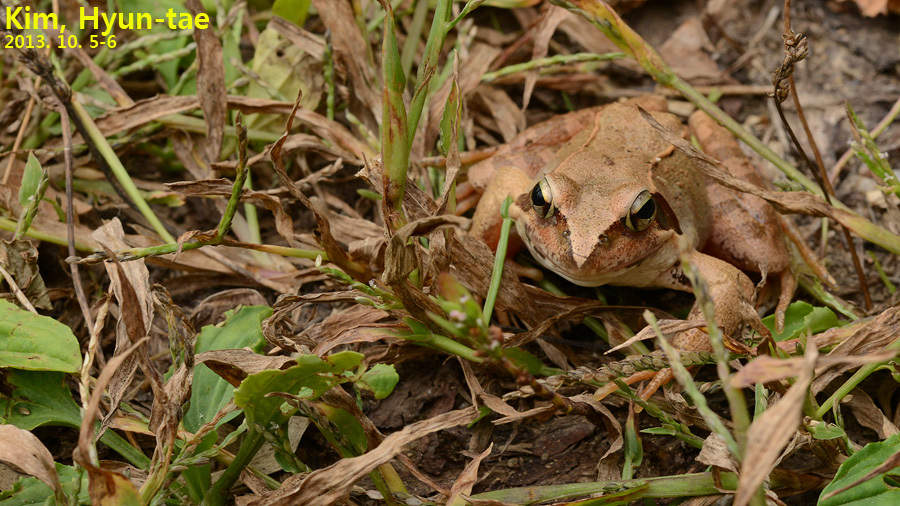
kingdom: Animalia
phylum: Chordata
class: Amphibia
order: Anura
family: Ranidae
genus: Rana
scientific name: Rana uenoi
